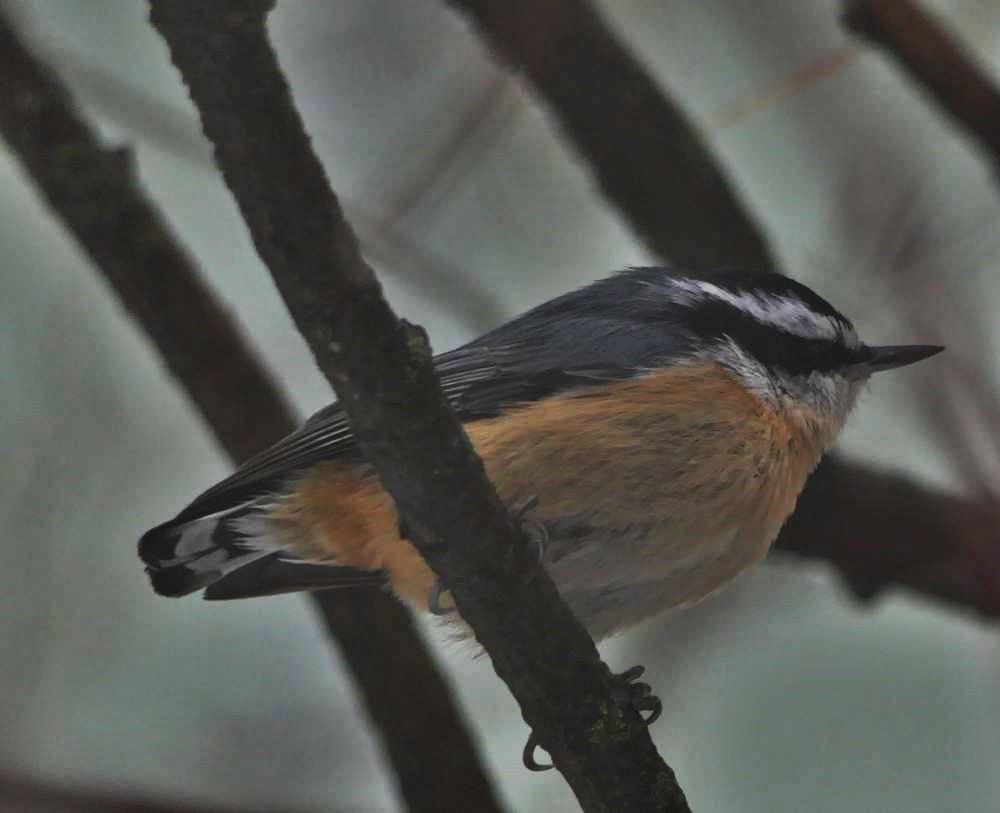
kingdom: Animalia
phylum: Chordata
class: Aves
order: Passeriformes
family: Sittidae
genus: Sitta
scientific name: Sitta canadensis
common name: Red-breasted nuthatch
